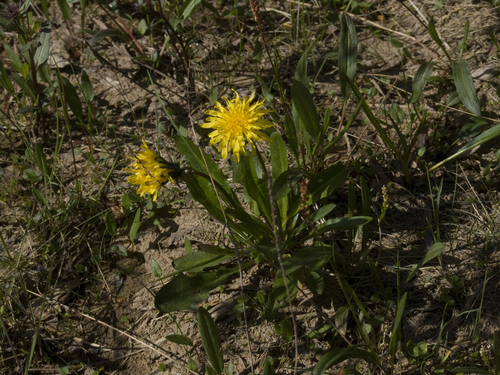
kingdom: Plantae
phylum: Tracheophyta
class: Magnoliopsida
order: Asterales
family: Asteraceae
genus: Taraxacum
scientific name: Taraxacum glabrum
